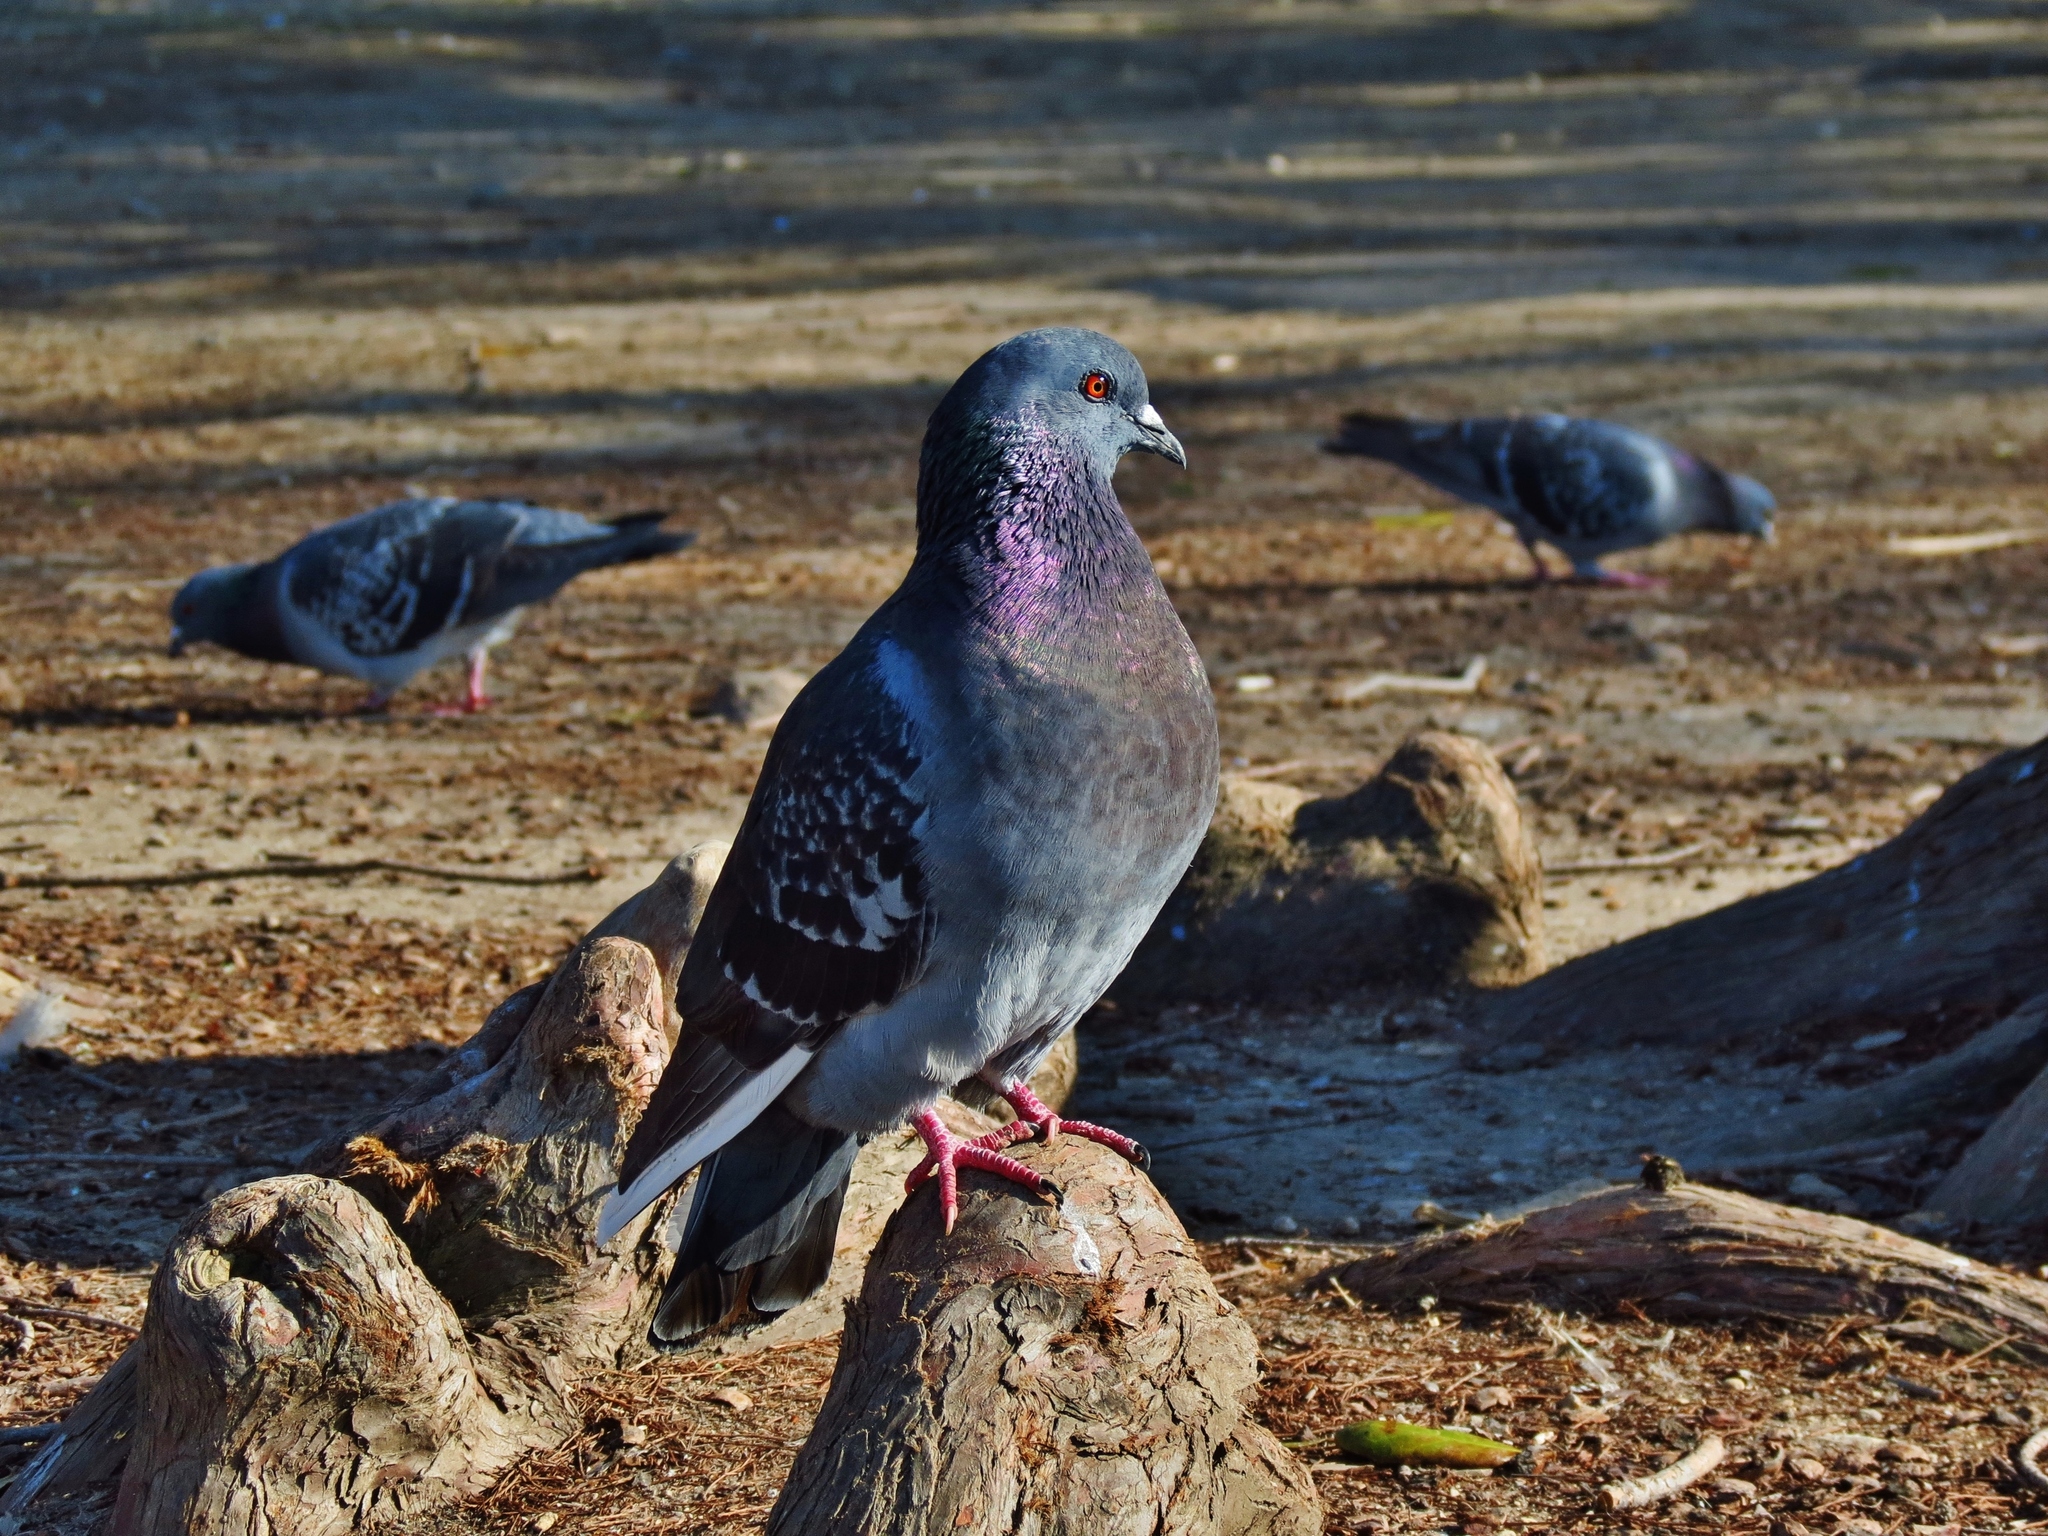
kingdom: Animalia
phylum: Chordata
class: Aves
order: Columbiformes
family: Columbidae
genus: Columba
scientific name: Columba livia
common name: Rock pigeon
